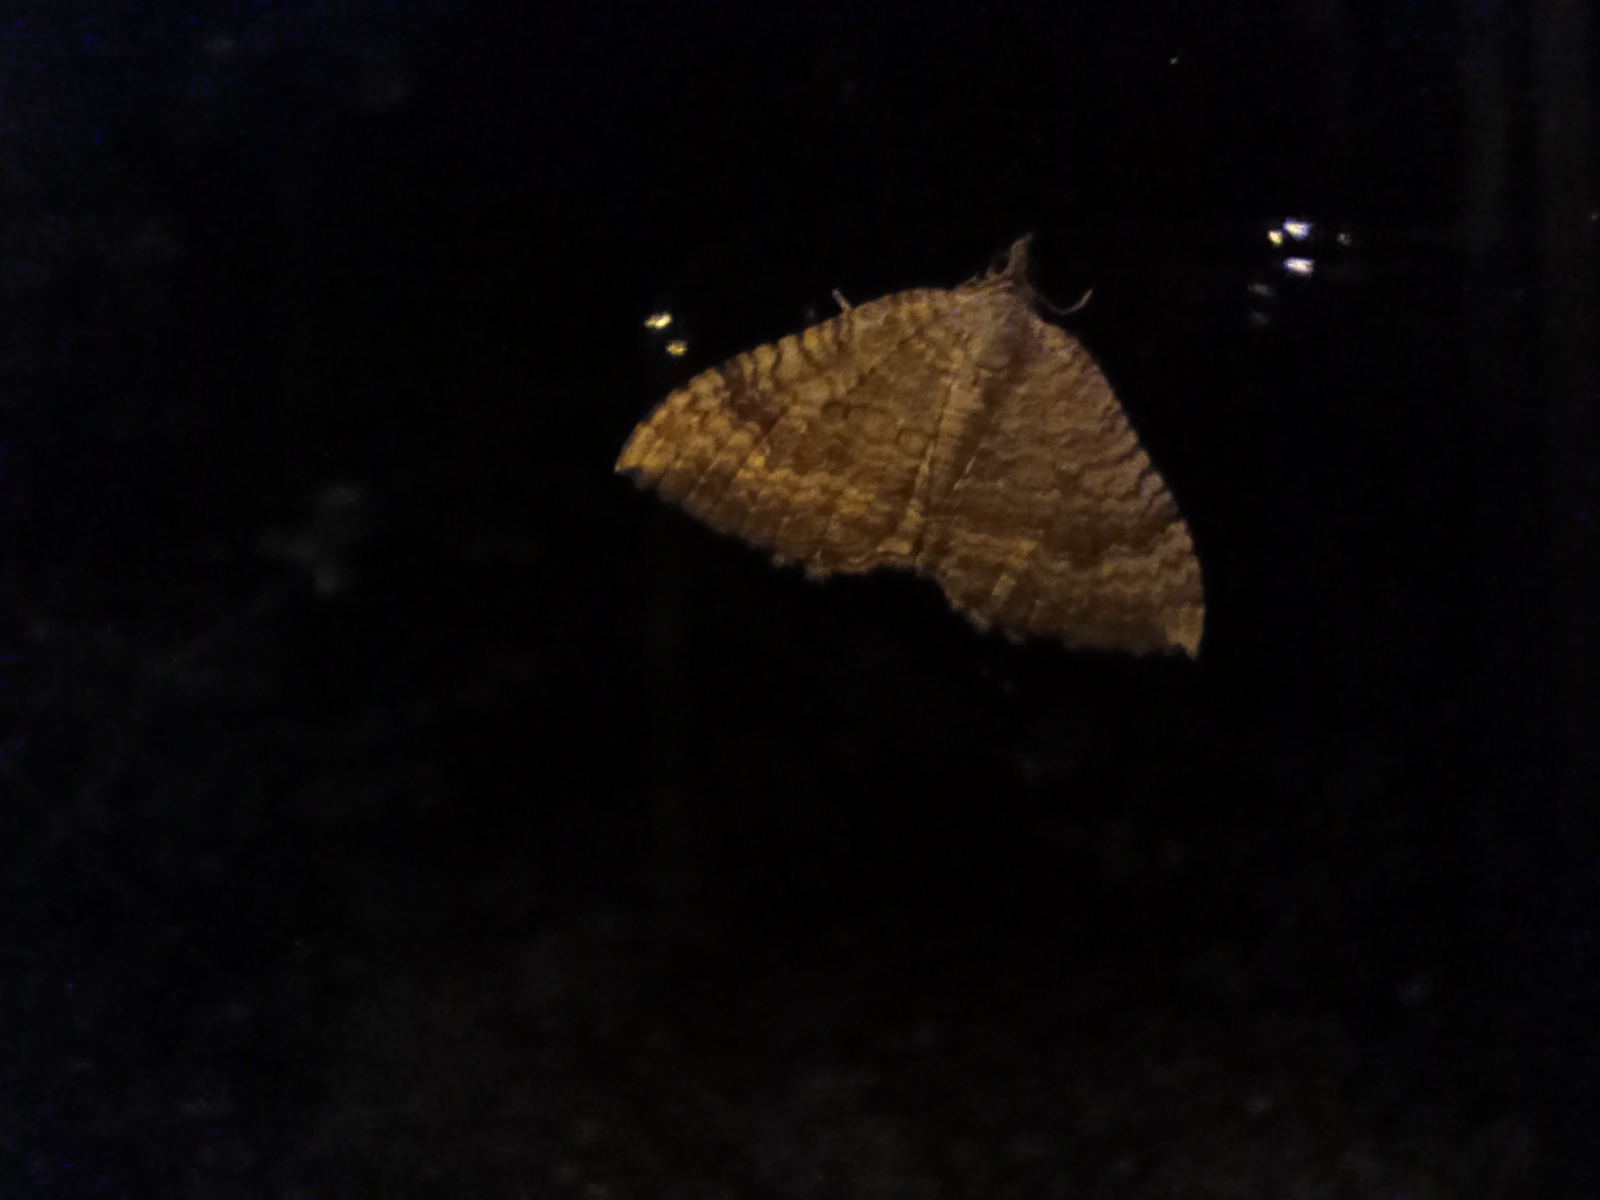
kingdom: Animalia
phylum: Arthropoda
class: Insecta
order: Lepidoptera
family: Geometridae
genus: Camptogramma
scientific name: Camptogramma bilineata
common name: Yellow shell
